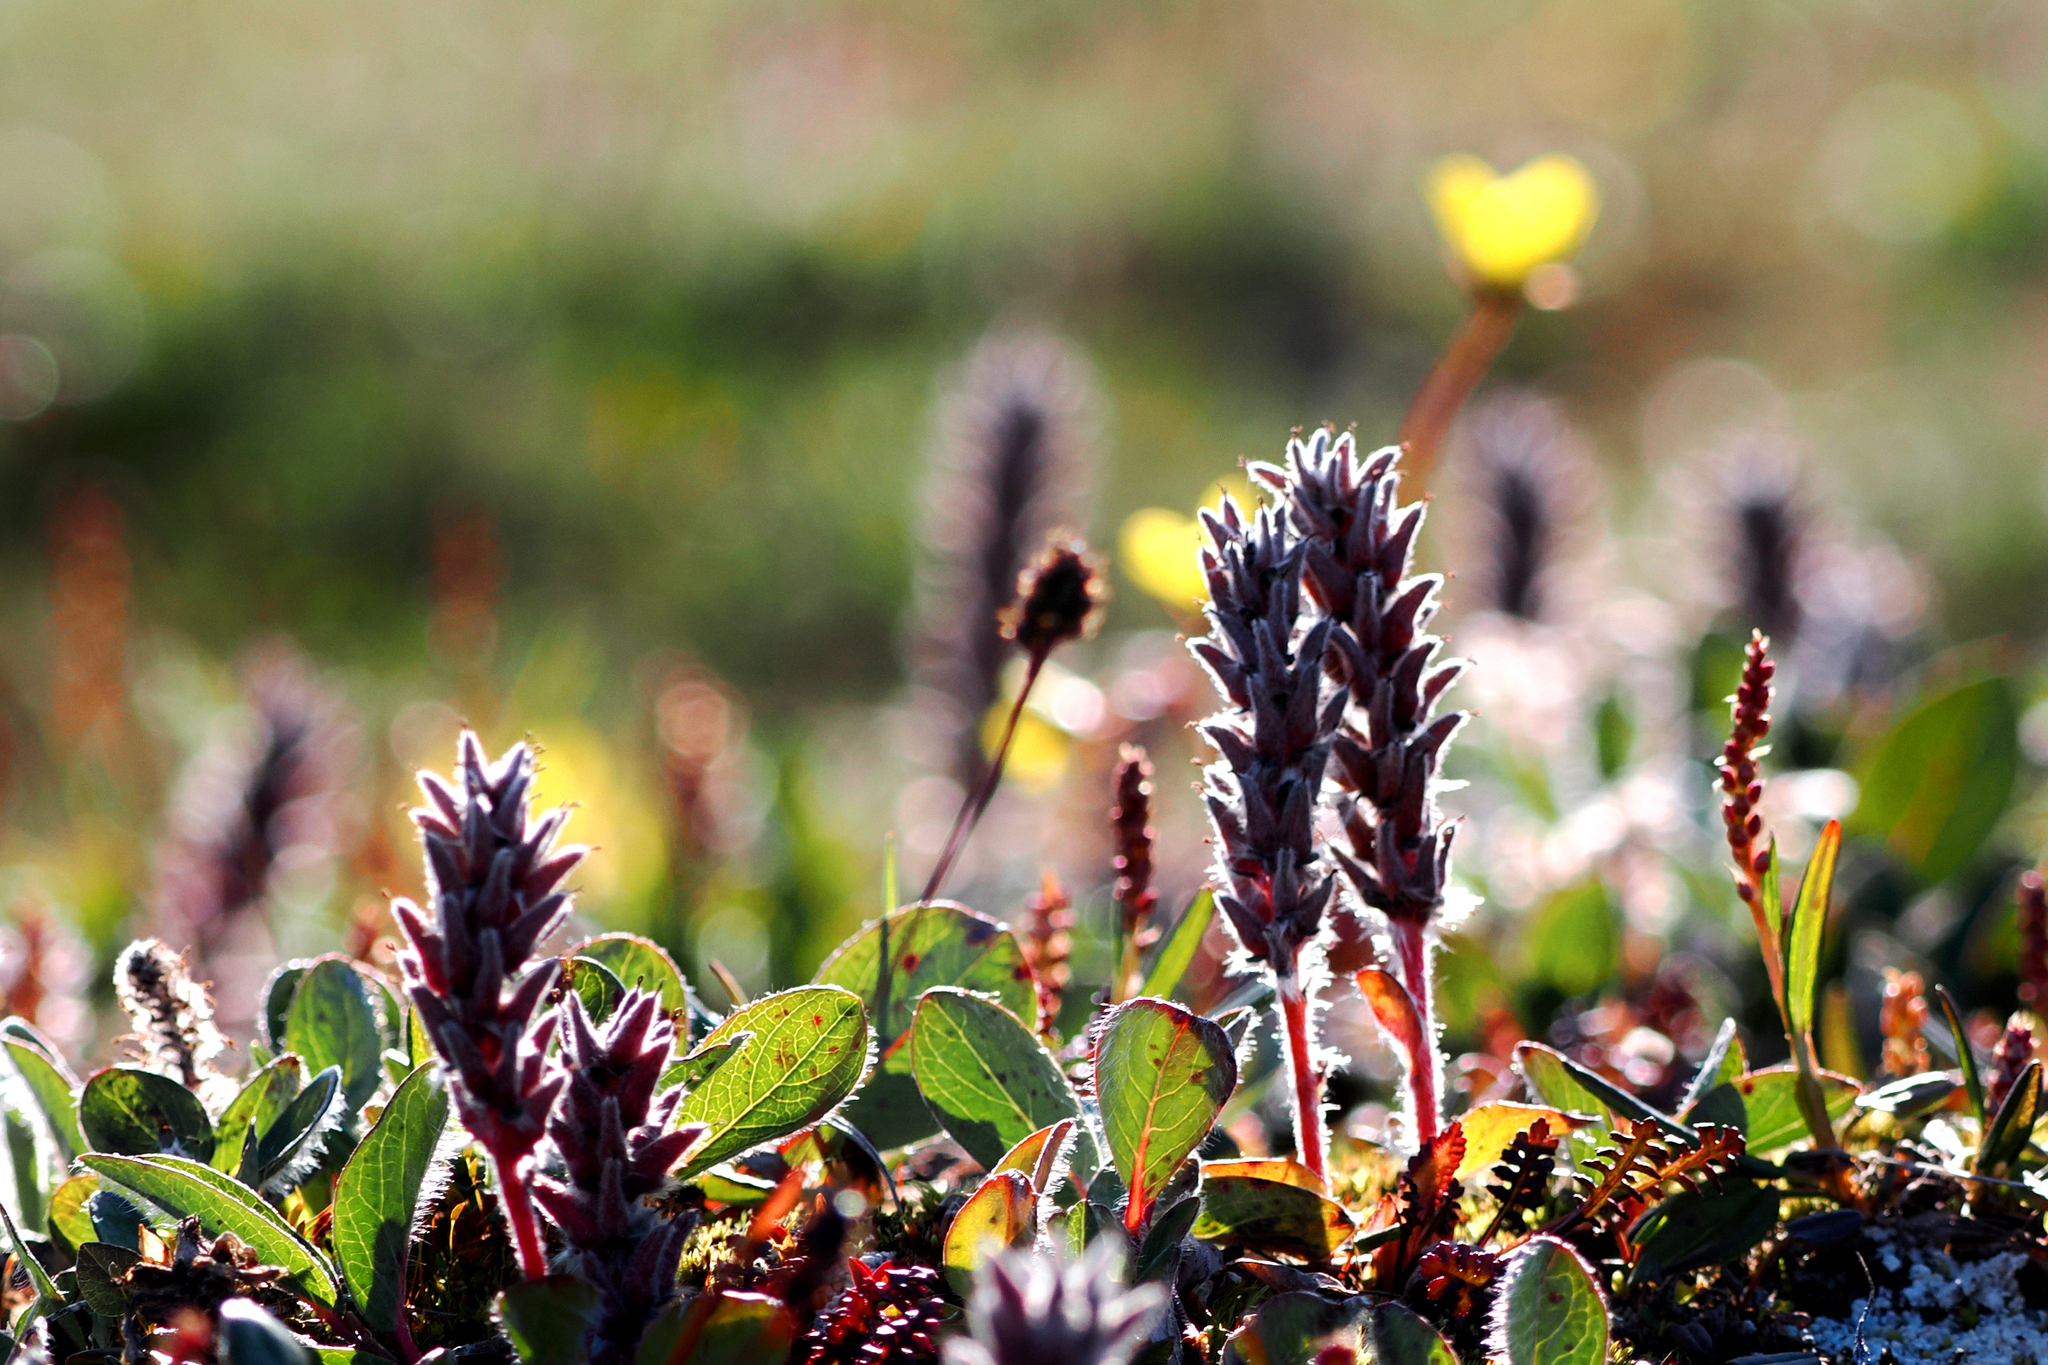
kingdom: Plantae
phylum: Tracheophyta
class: Magnoliopsida
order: Malpighiales
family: Salicaceae
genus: Salix
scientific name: Salix arctica
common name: Arctic willow
